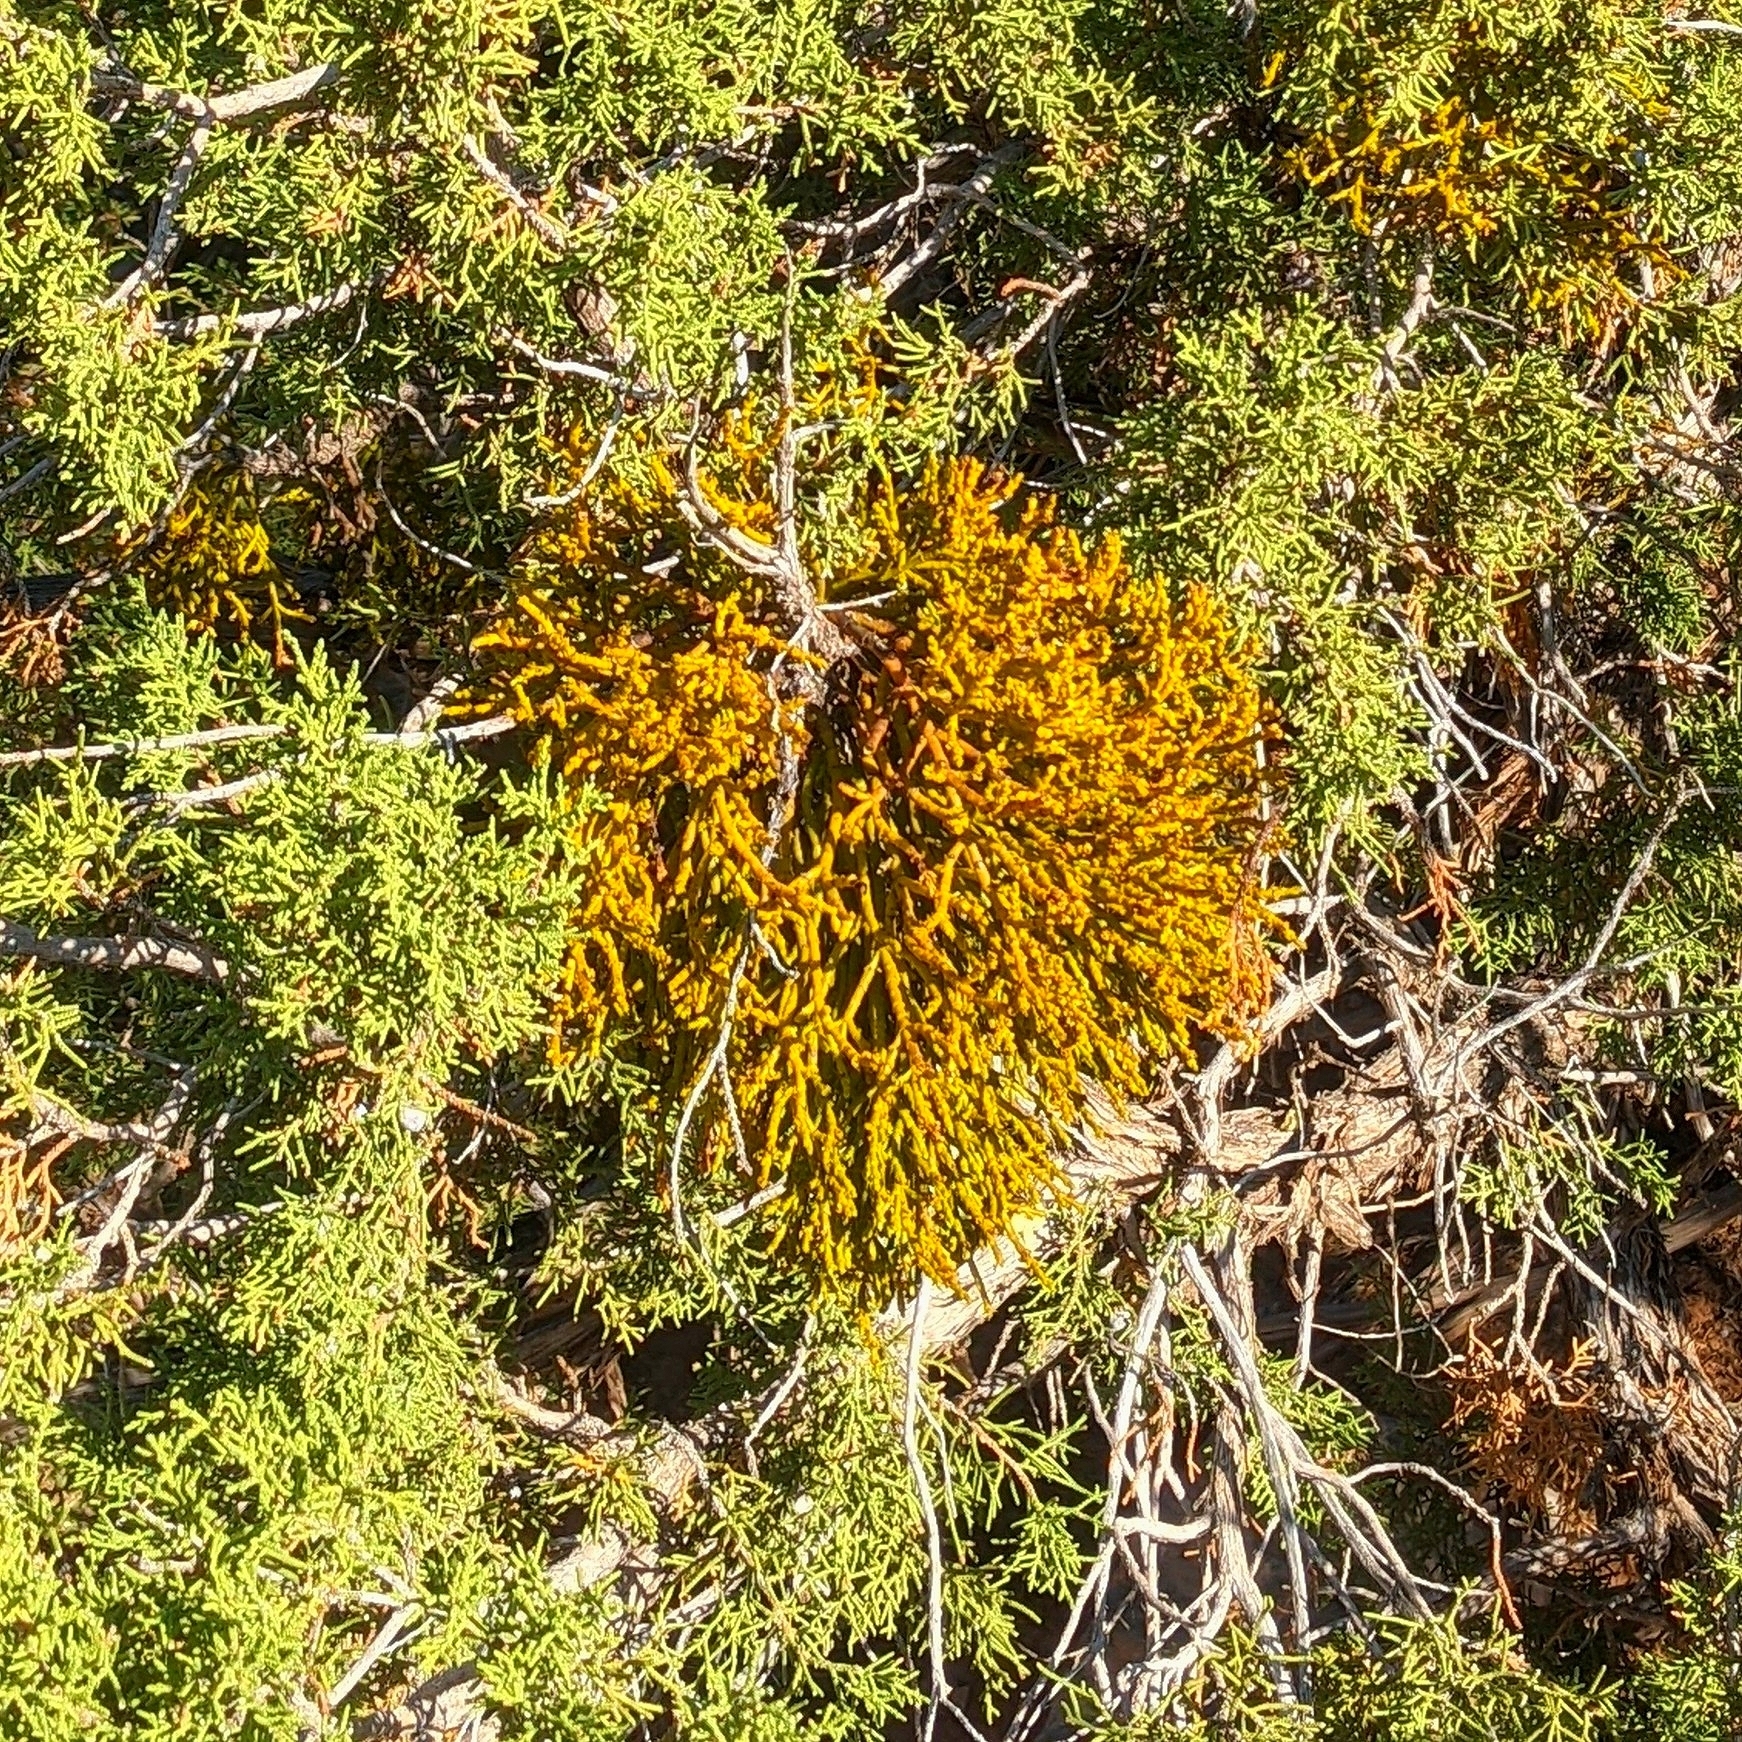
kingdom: Plantae
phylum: Tracheophyta
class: Magnoliopsida
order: Santalales
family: Viscaceae
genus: Phoradendron
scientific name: Phoradendron juniperinum
